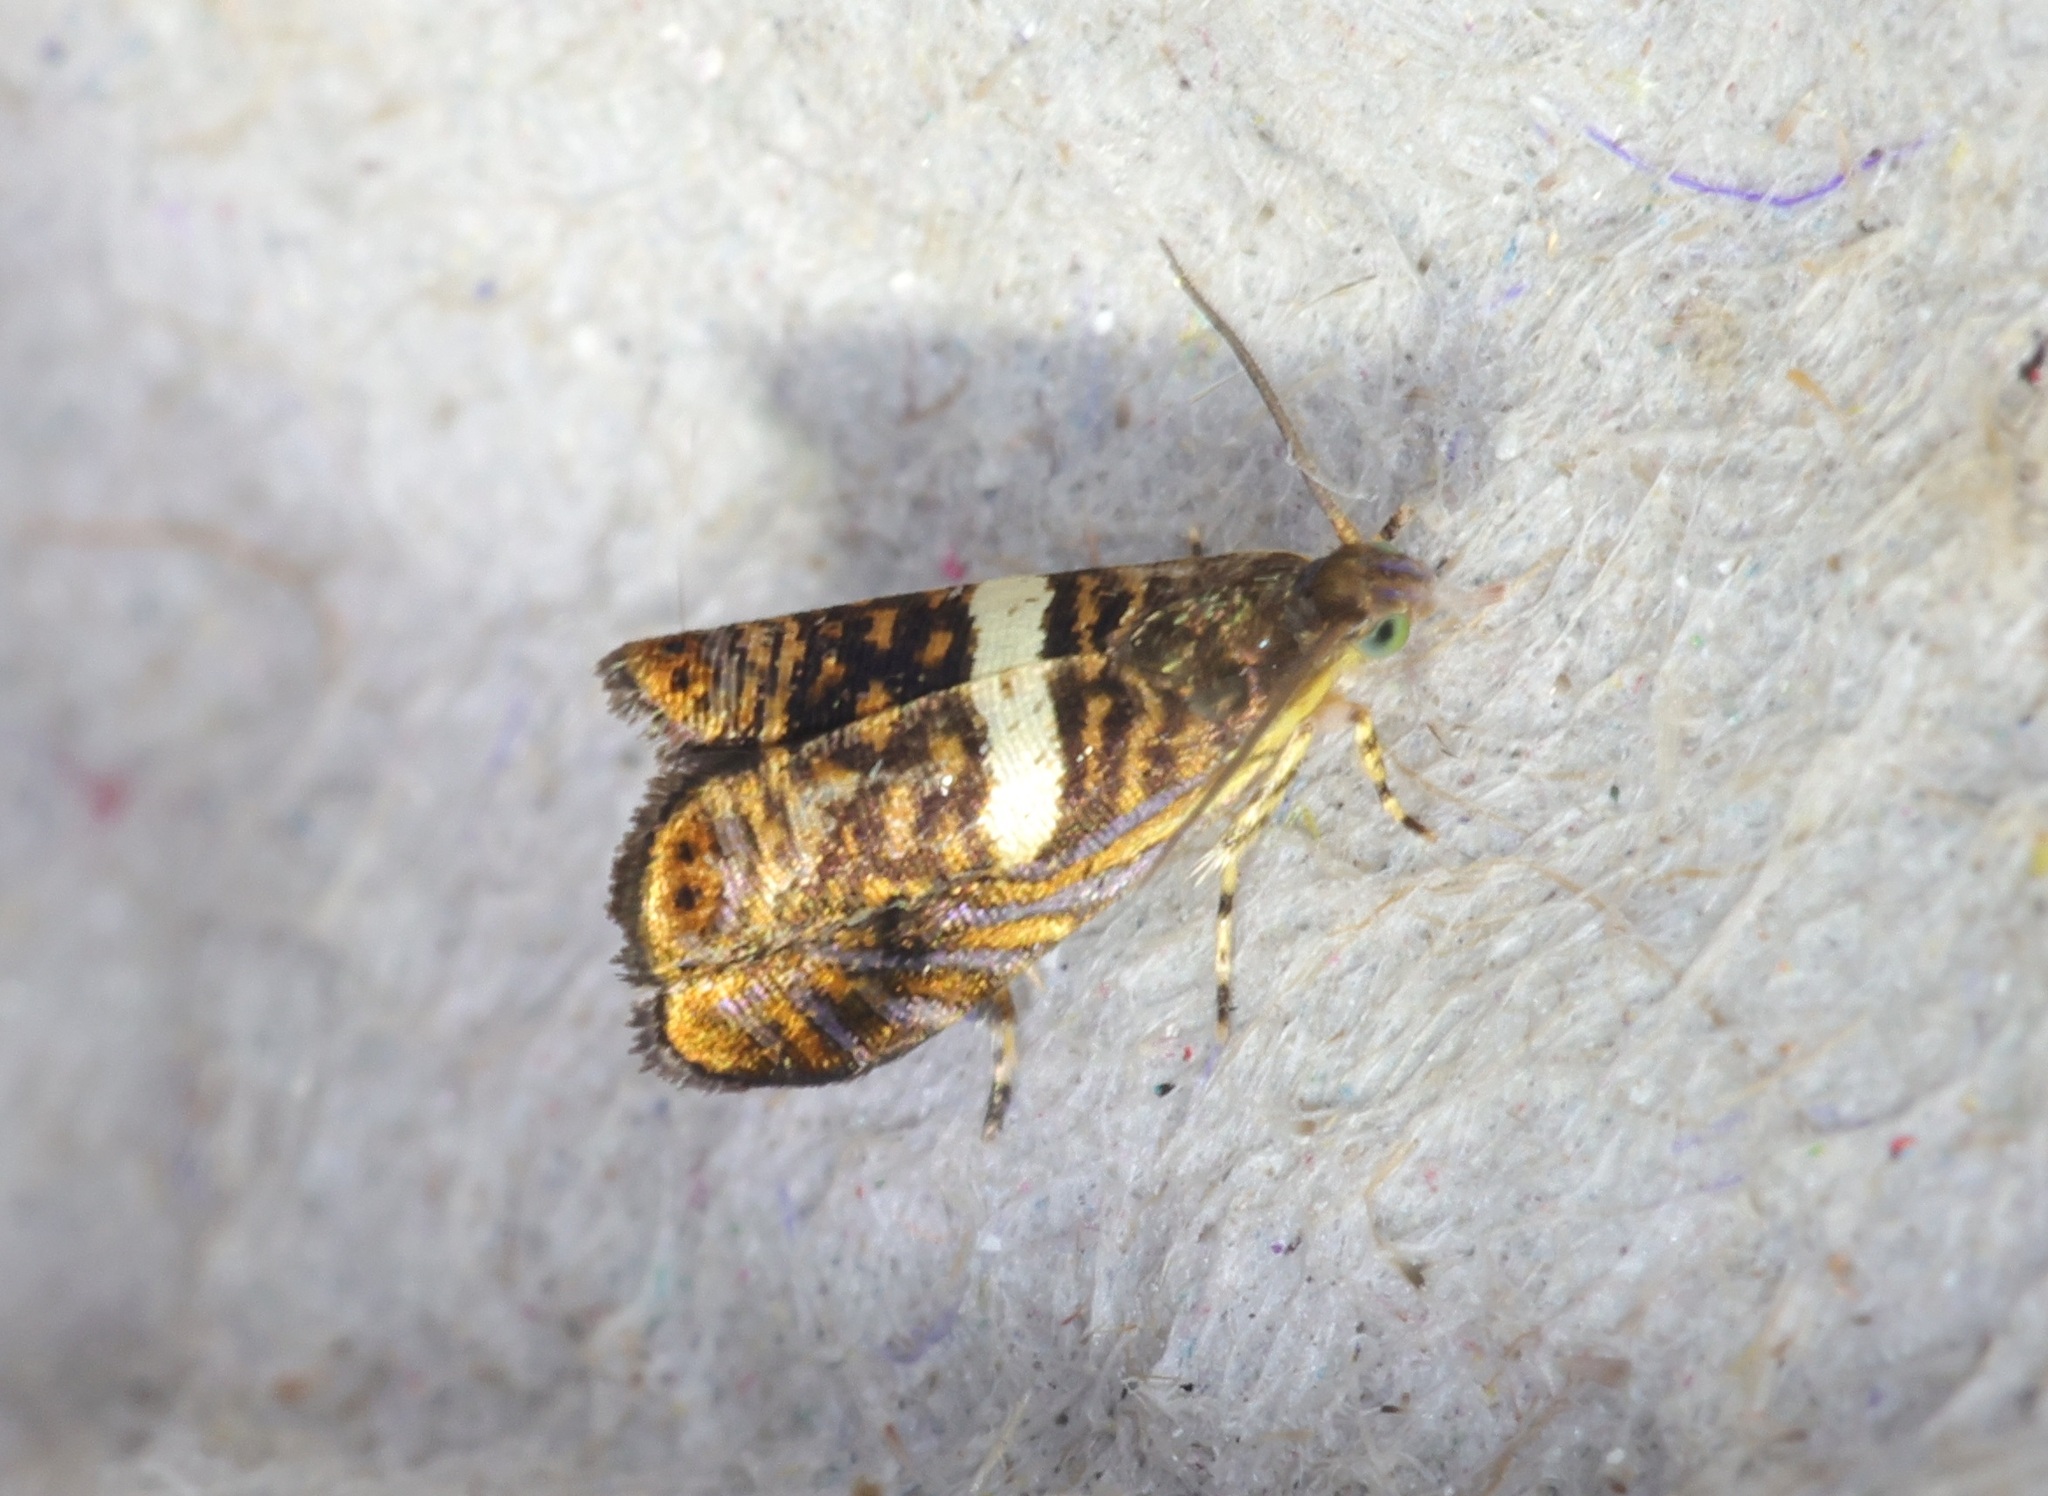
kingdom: Animalia
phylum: Arthropoda
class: Insecta
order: Lepidoptera
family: Tortricidae
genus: Hilarographa
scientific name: Hilarographa shehkonga
